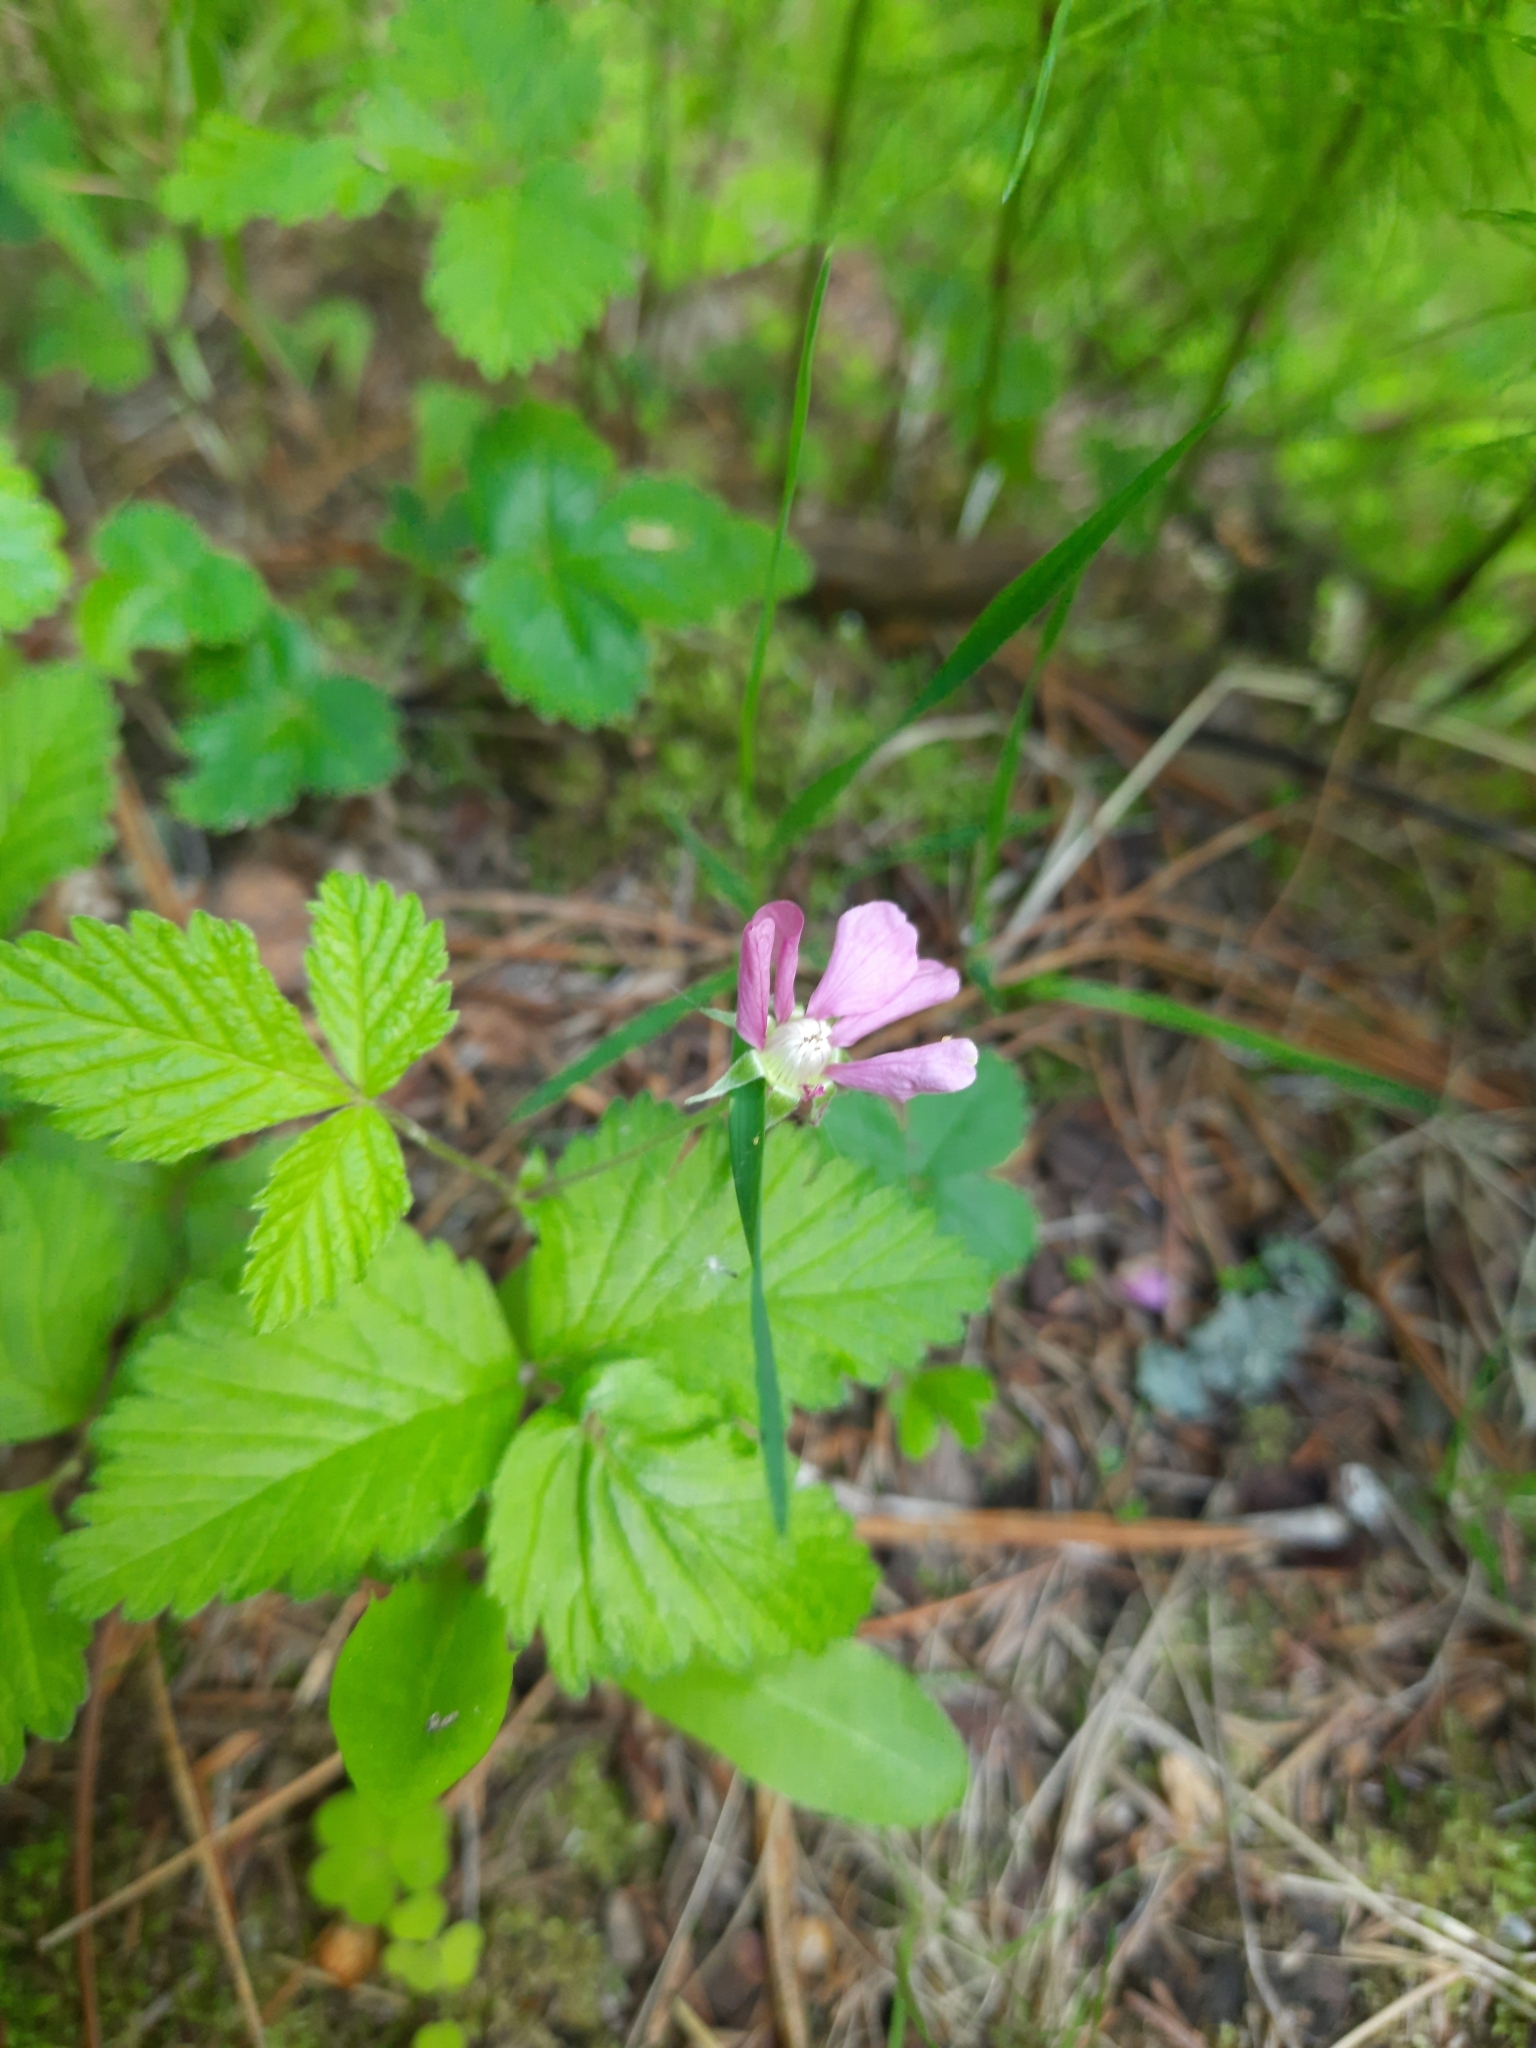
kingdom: Plantae
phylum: Tracheophyta
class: Magnoliopsida
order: Rosales
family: Rosaceae
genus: Rubus
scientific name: Rubus arcticus
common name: Arctic bramble
